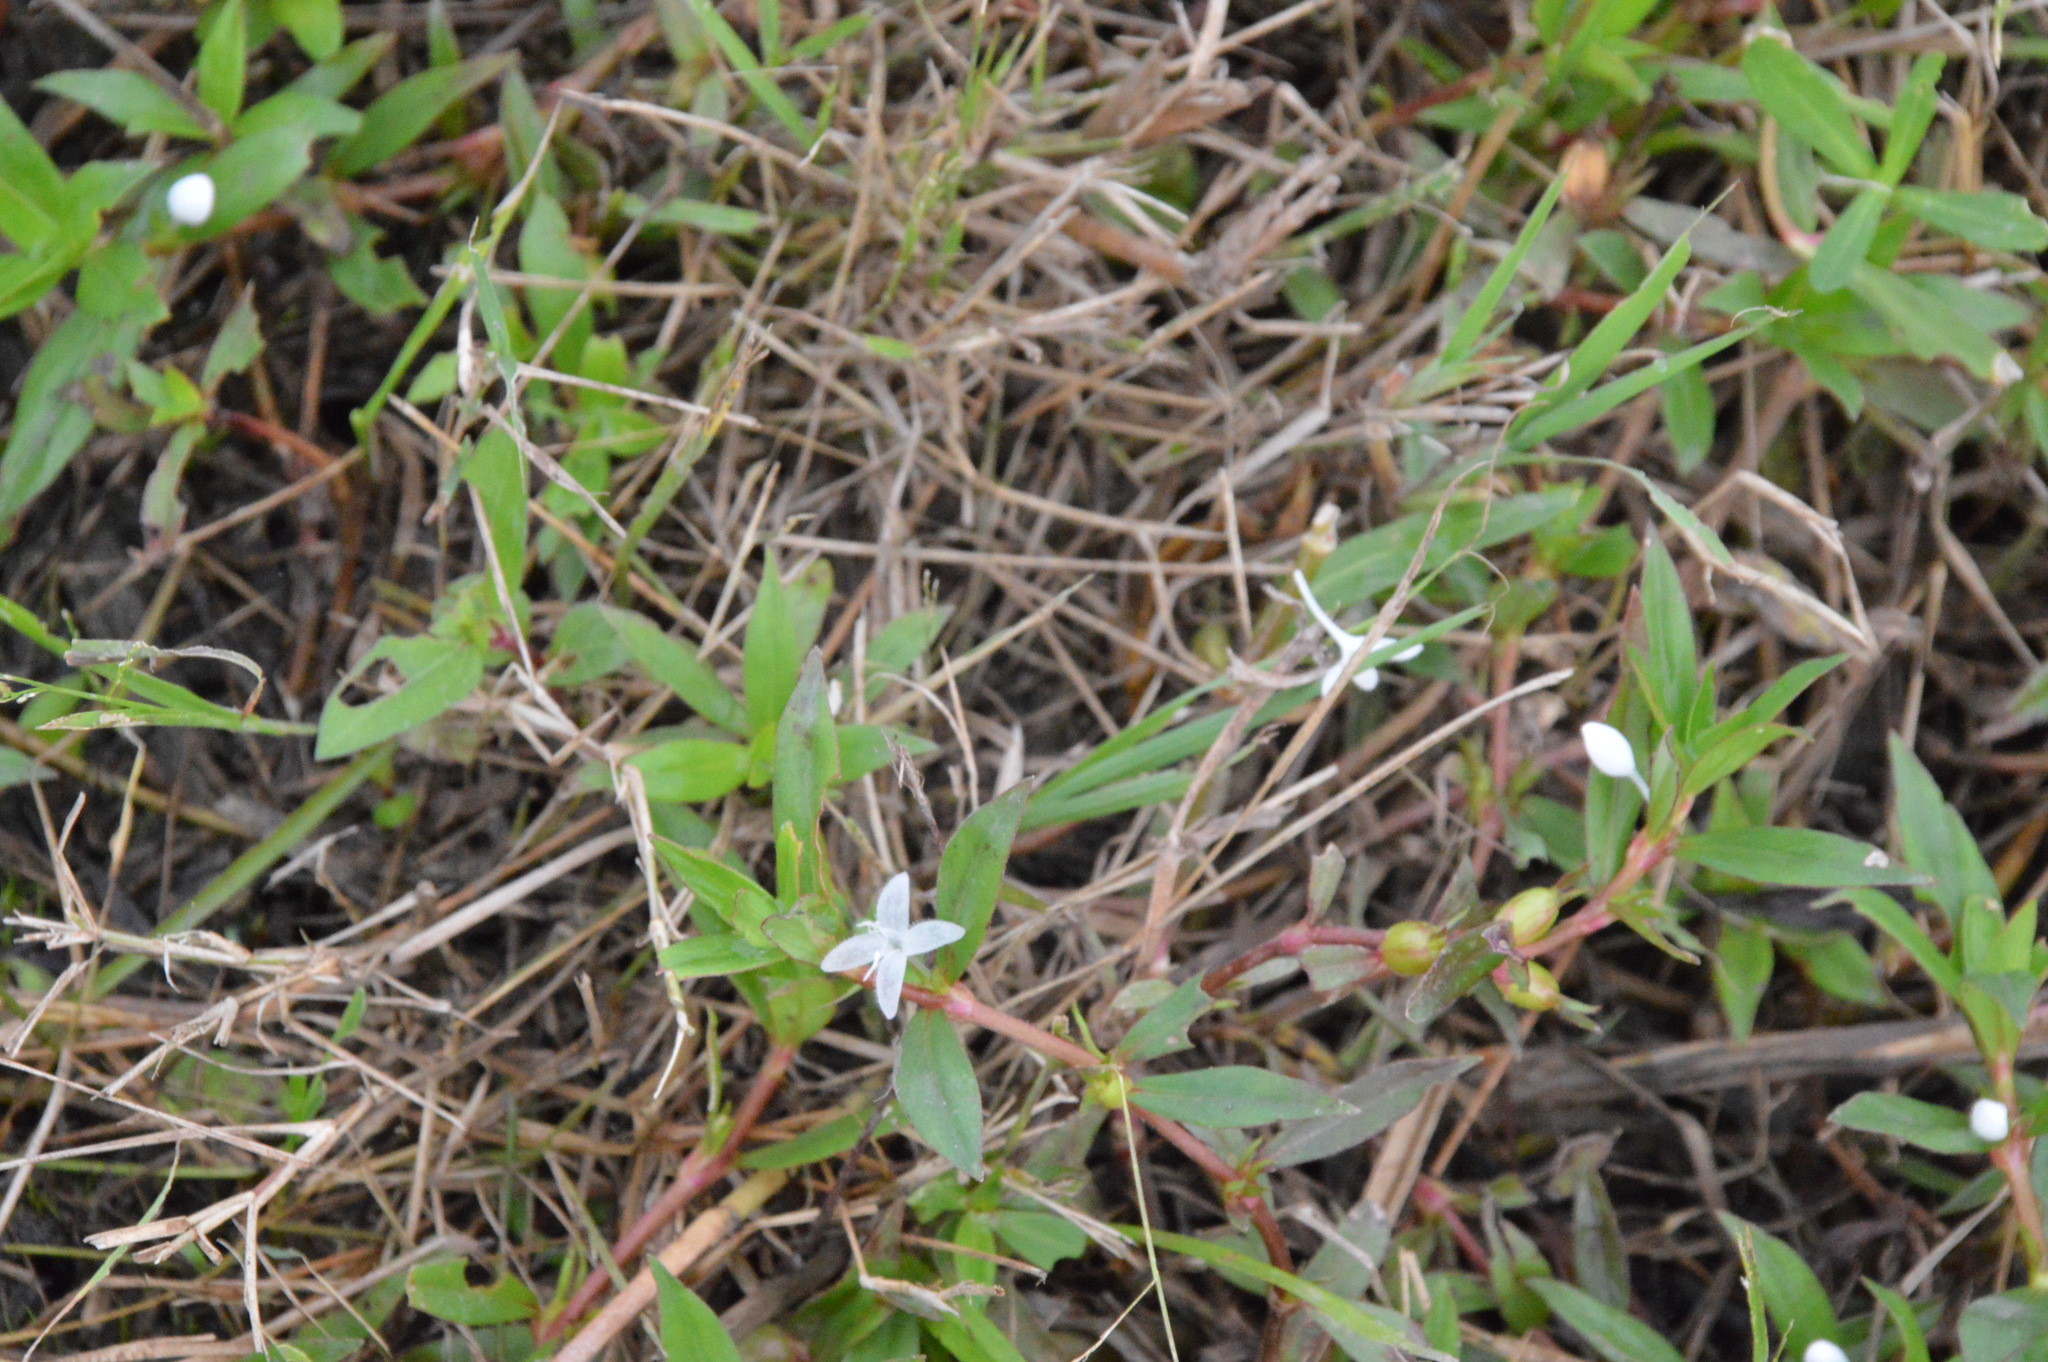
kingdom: Plantae
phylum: Tracheophyta
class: Magnoliopsida
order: Gentianales
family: Rubiaceae
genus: Diodia
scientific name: Diodia virginiana
